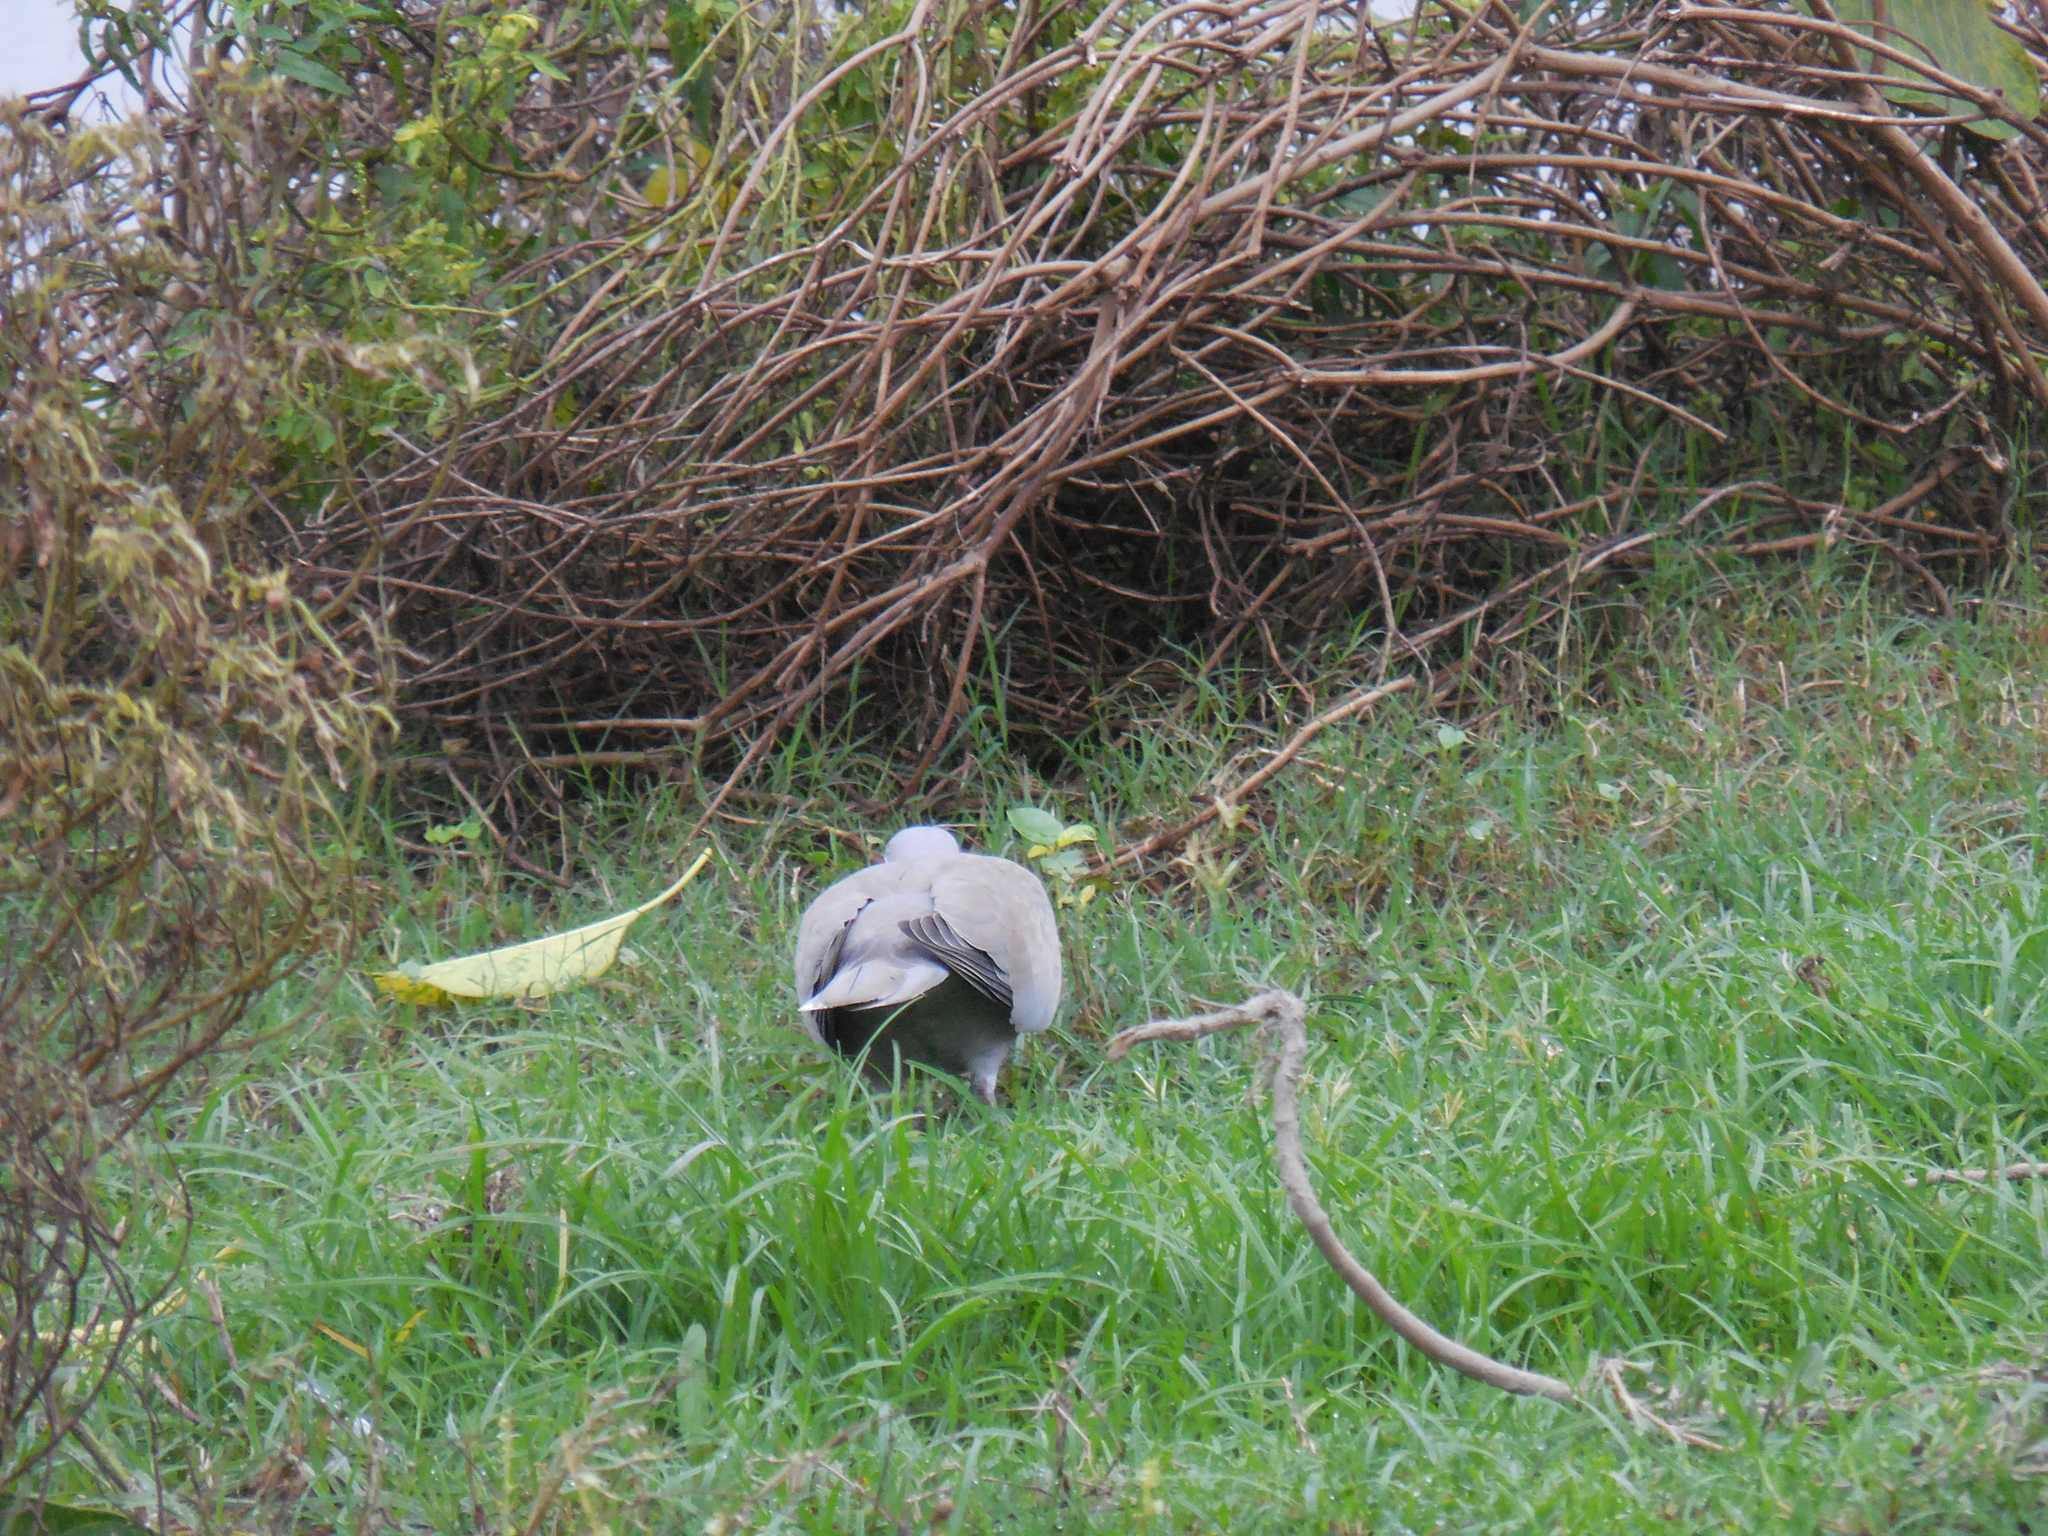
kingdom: Animalia
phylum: Chordata
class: Aves
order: Columbiformes
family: Columbidae
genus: Streptopelia
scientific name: Streptopelia decaocto
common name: Eurasian collared dove
